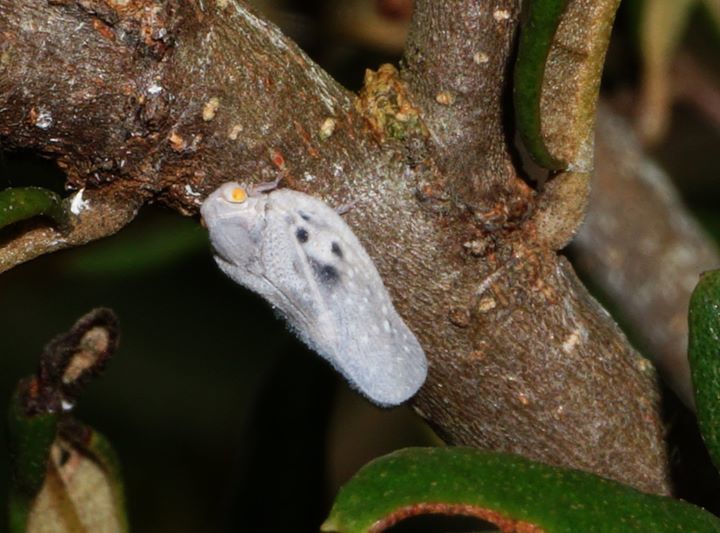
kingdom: Animalia
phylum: Arthropoda
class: Insecta
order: Hemiptera
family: Flatidae
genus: Metcalfa
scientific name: Metcalfa pruinosa
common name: Citrus flatid planthopper
